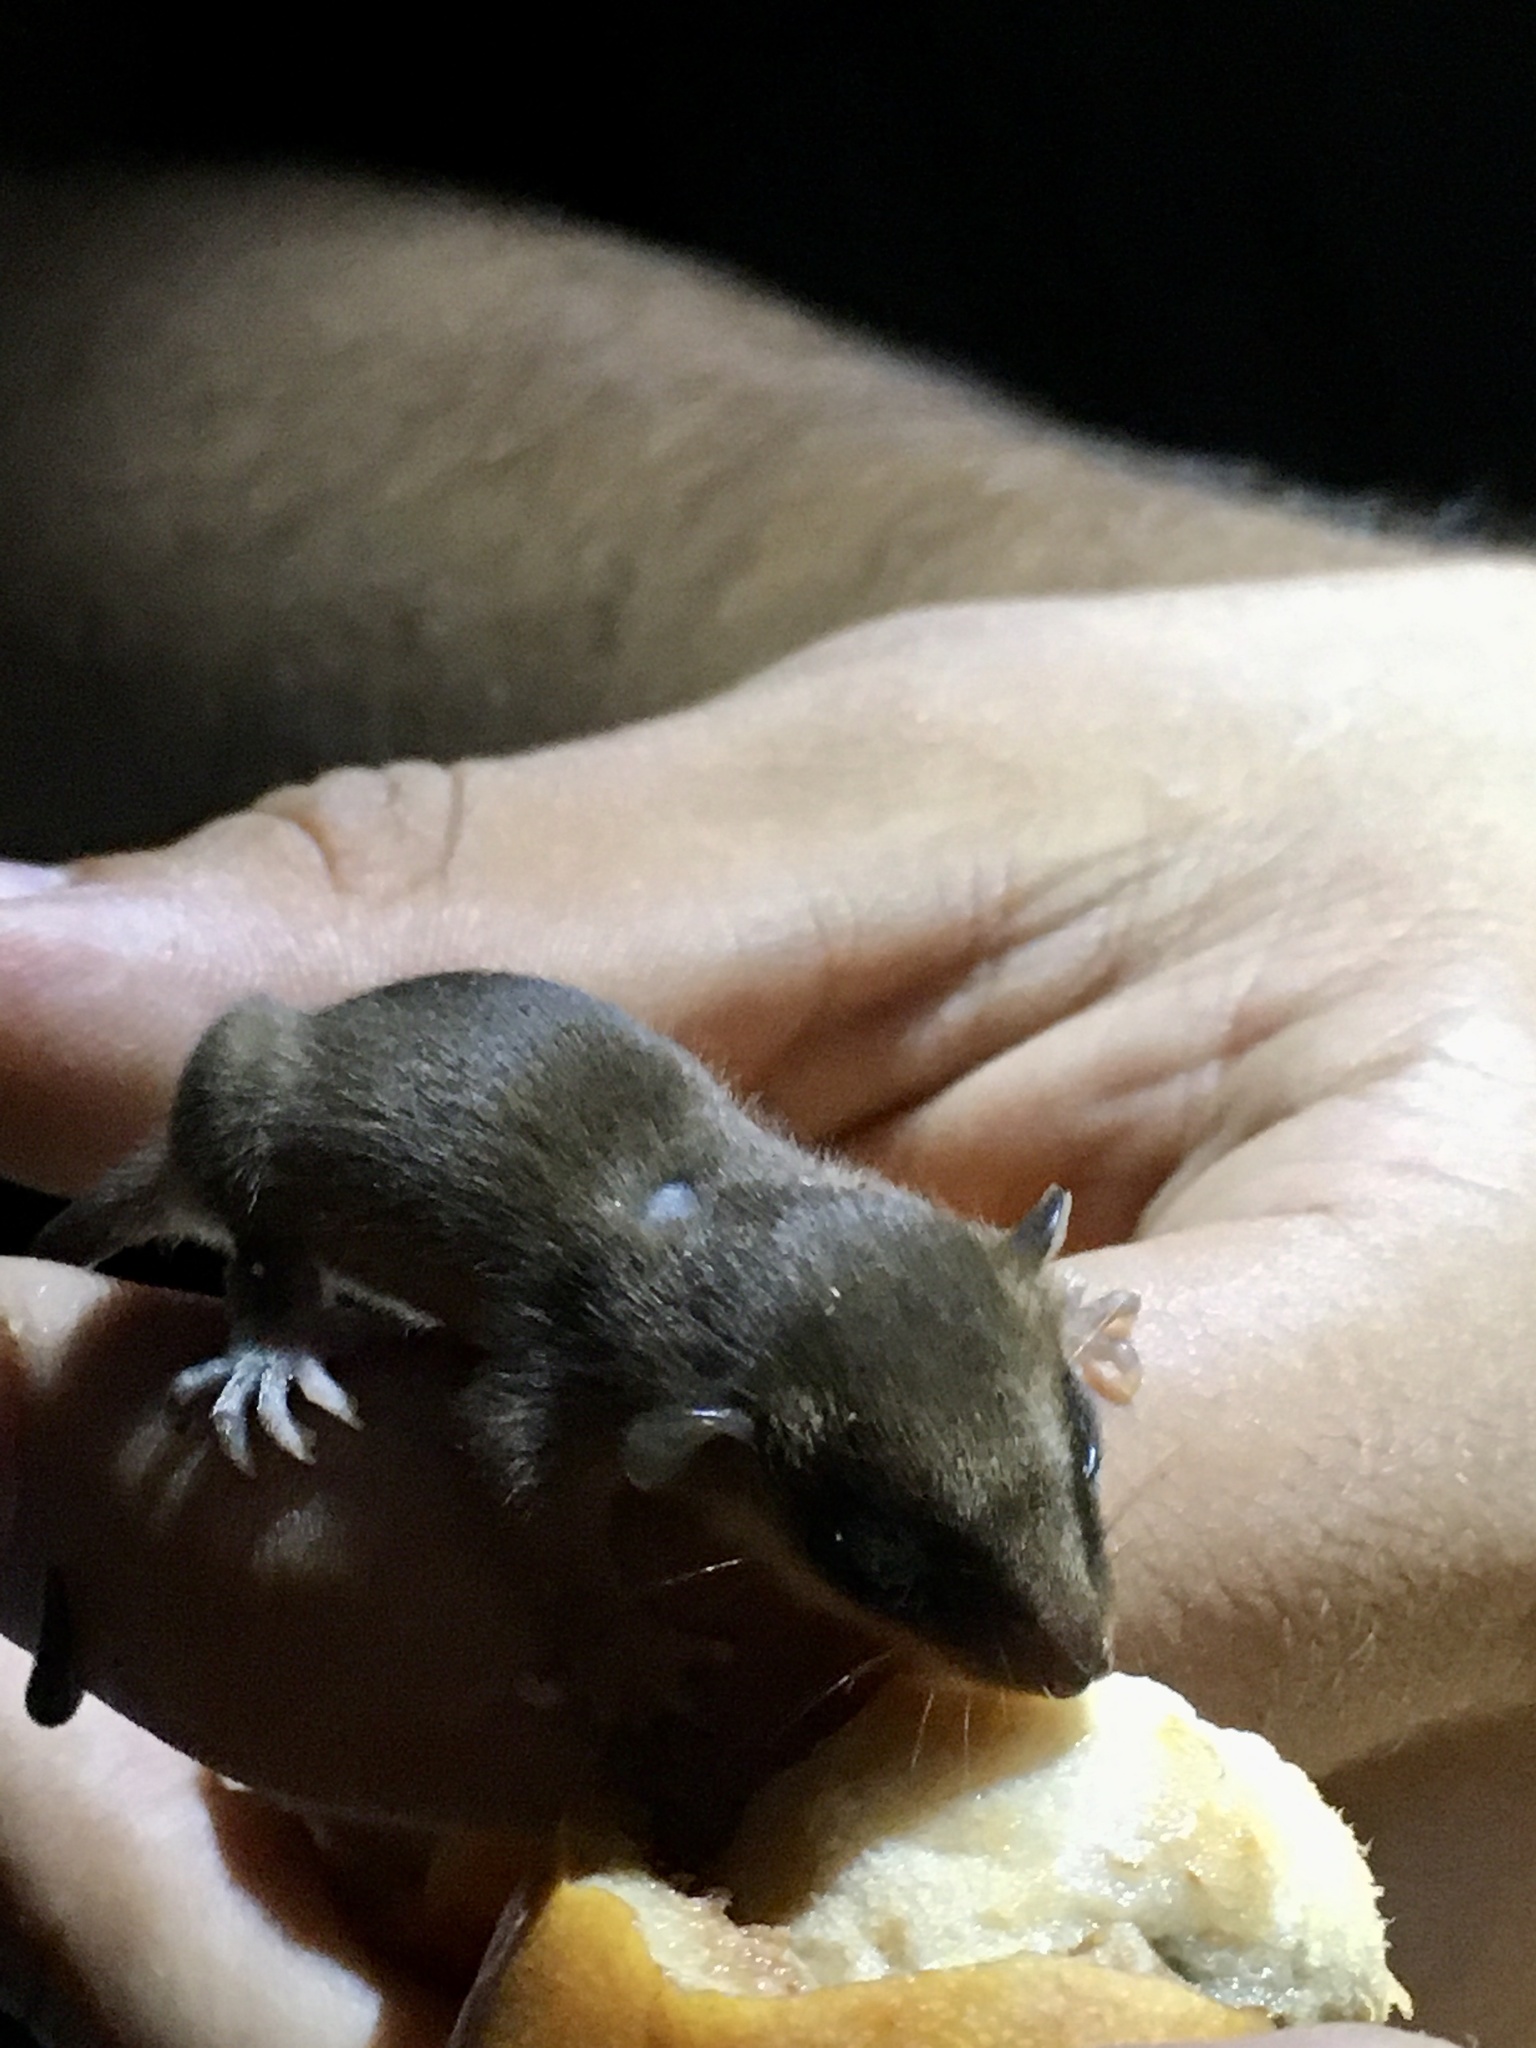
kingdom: Animalia
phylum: Chordata
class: Mammalia
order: Didelphimorphia
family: Didelphidae
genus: Marmosa
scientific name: Marmosa mexicana
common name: Mexican mouse opossum
